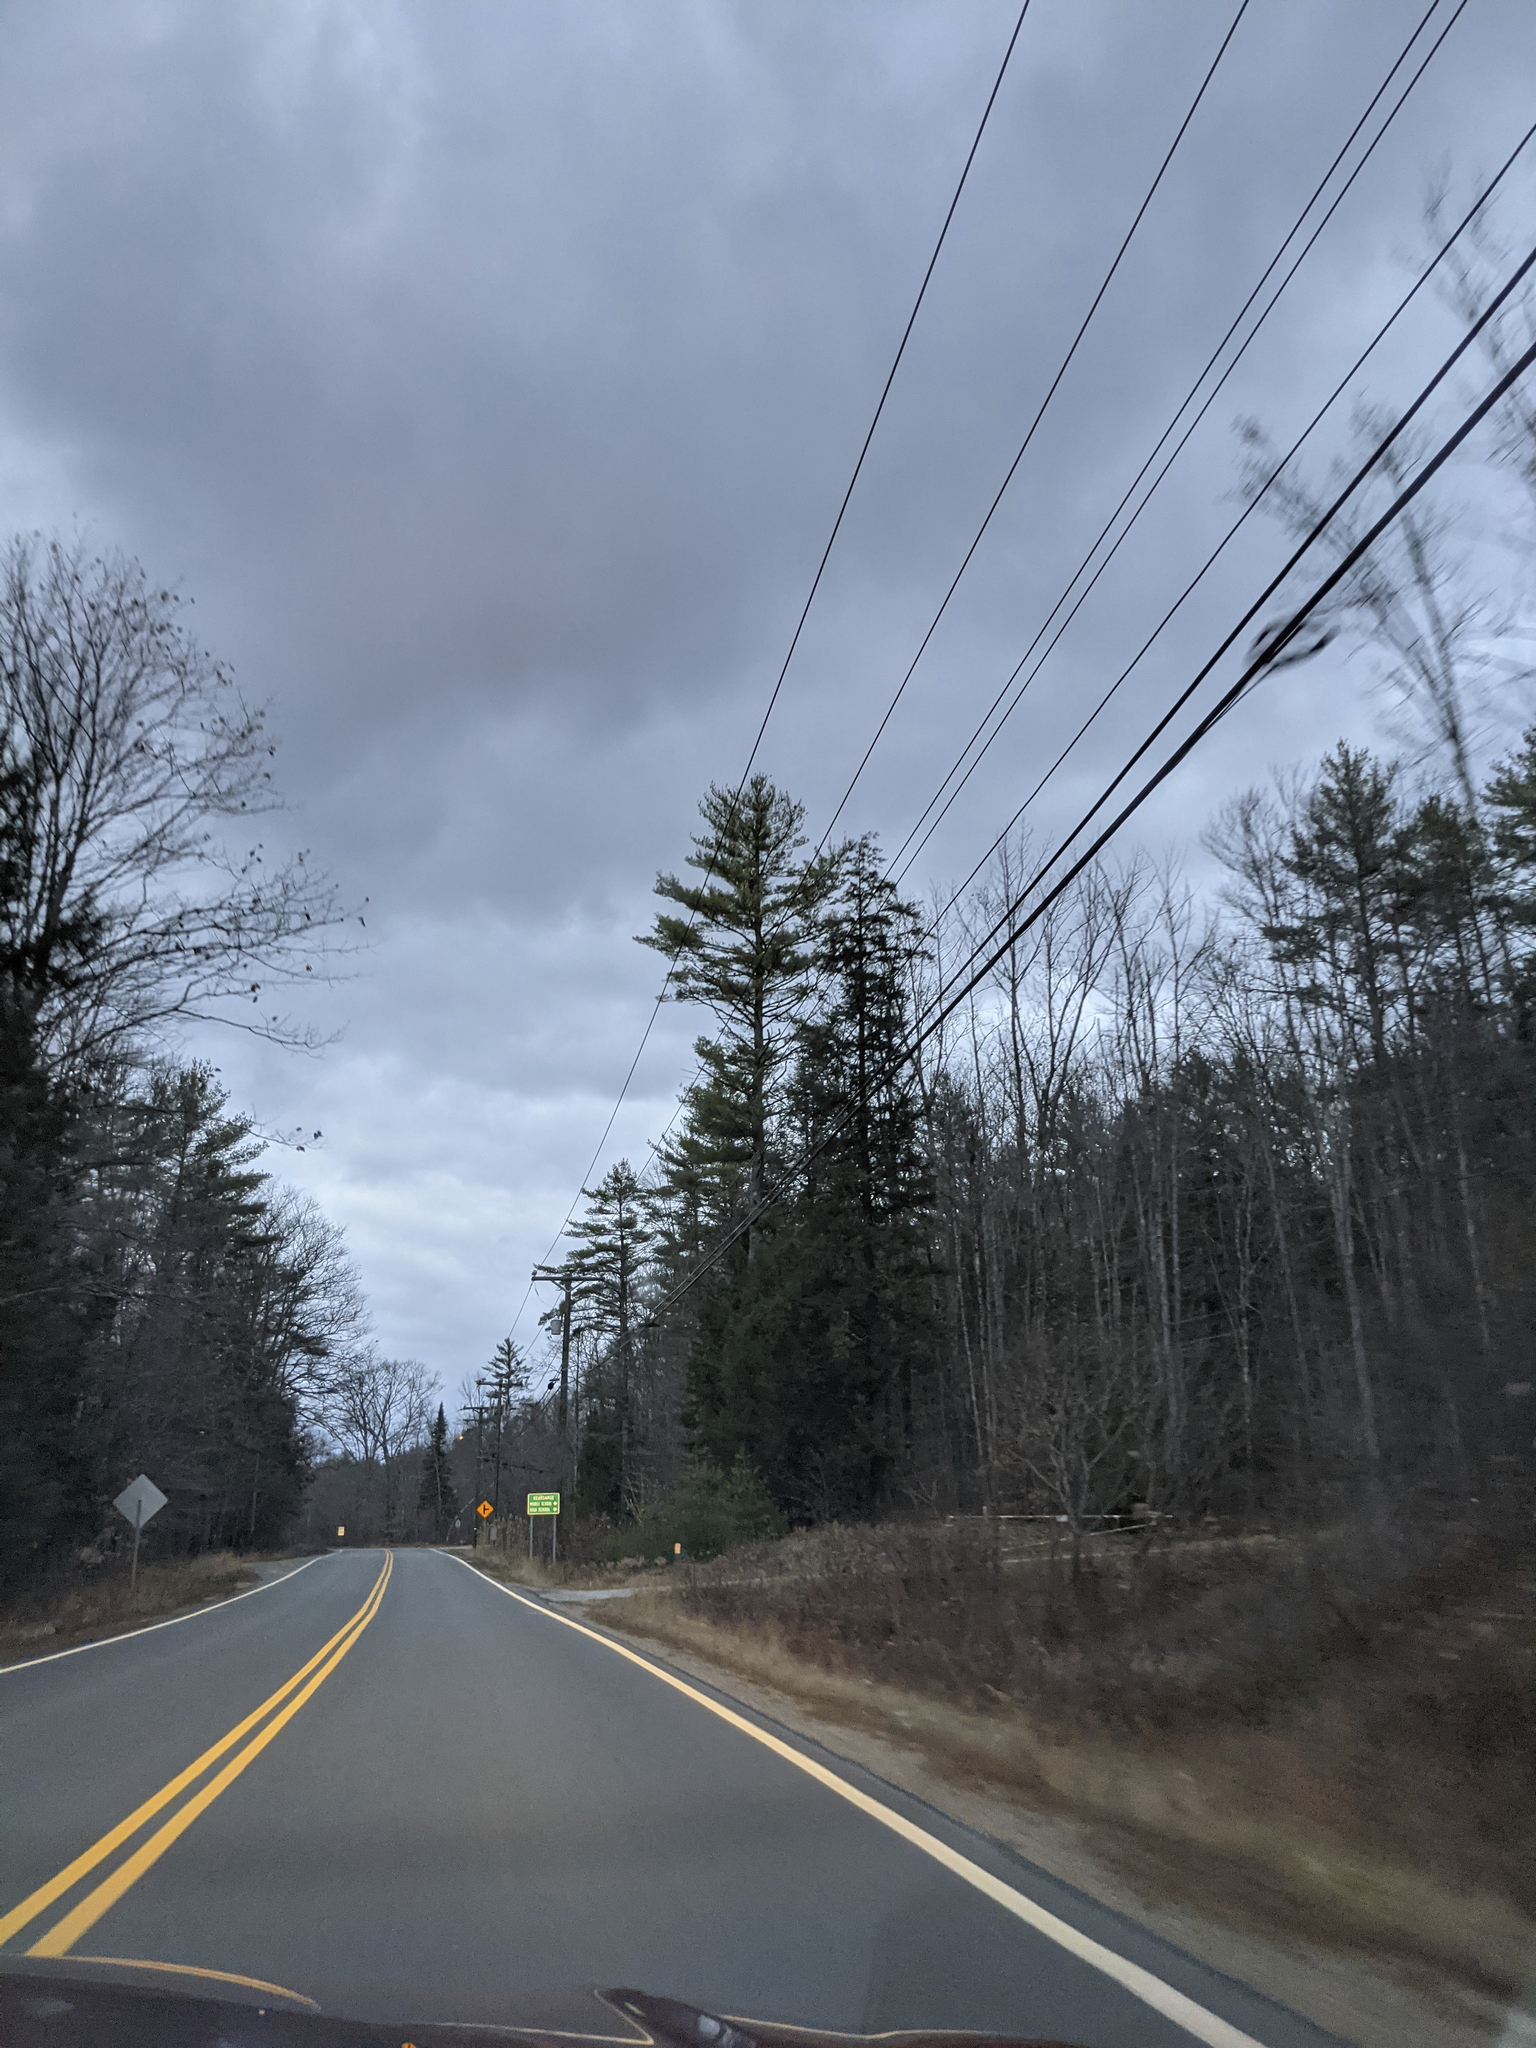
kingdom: Plantae
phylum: Tracheophyta
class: Pinopsida
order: Pinales
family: Pinaceae
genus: Pinus
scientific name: Pinus strobus
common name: Weymouth pine
